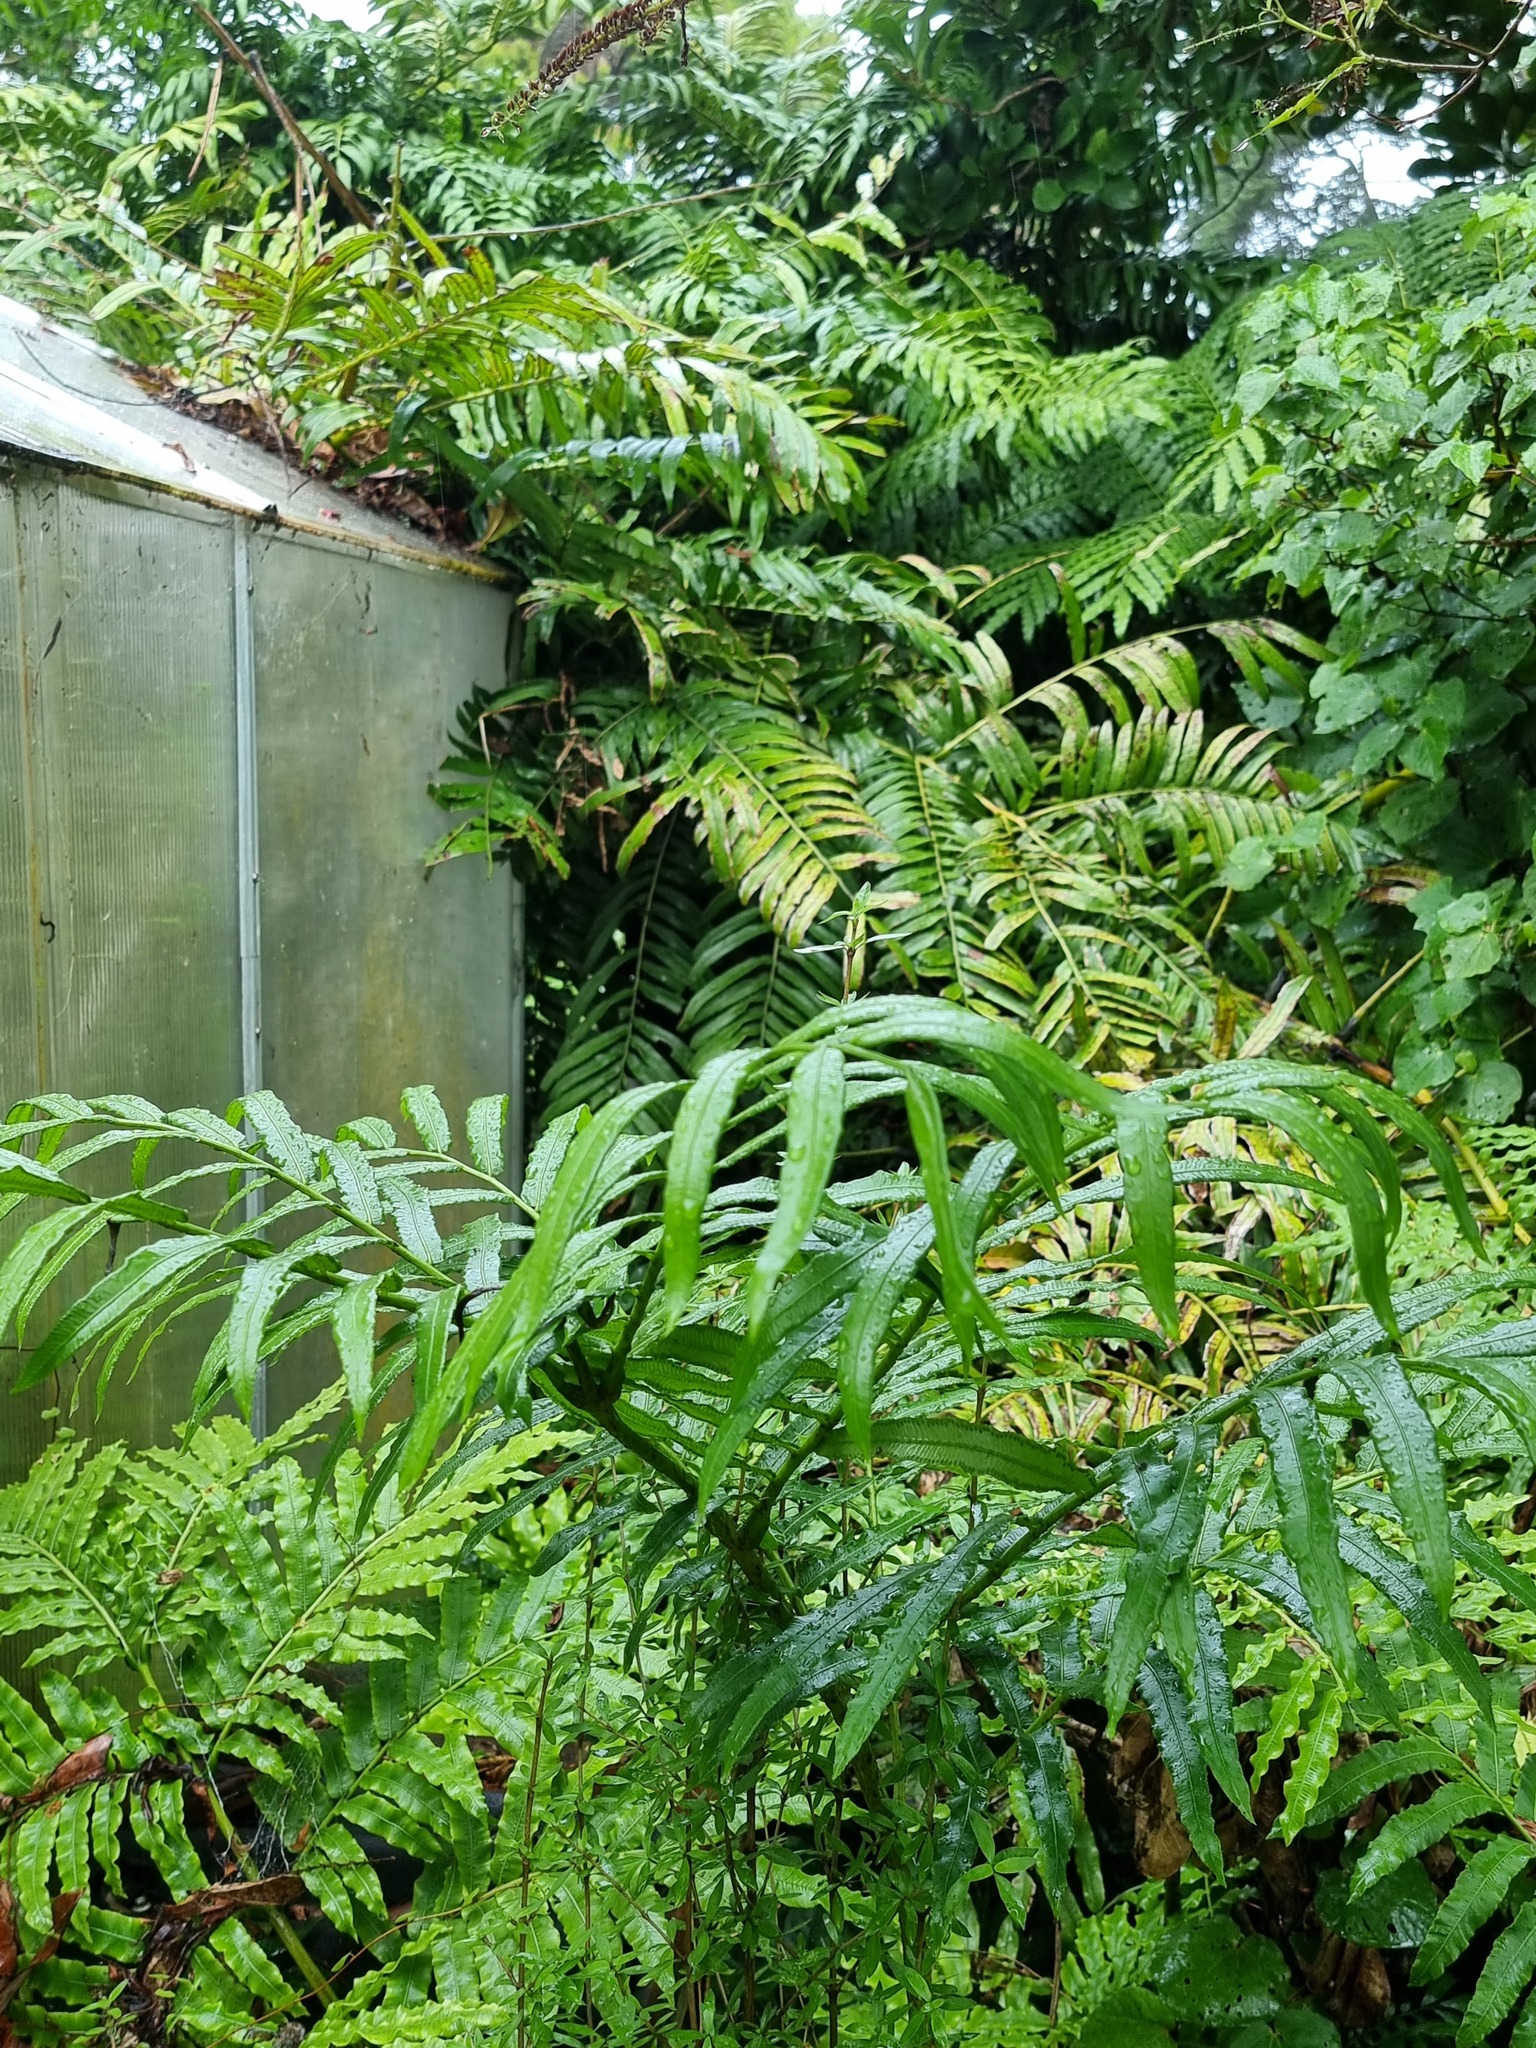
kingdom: Plantae
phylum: Tracheophyta
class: Polypodiopsida
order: Marattiales
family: Marattiaceae
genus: Ptisana
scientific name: Ptisana salicina
